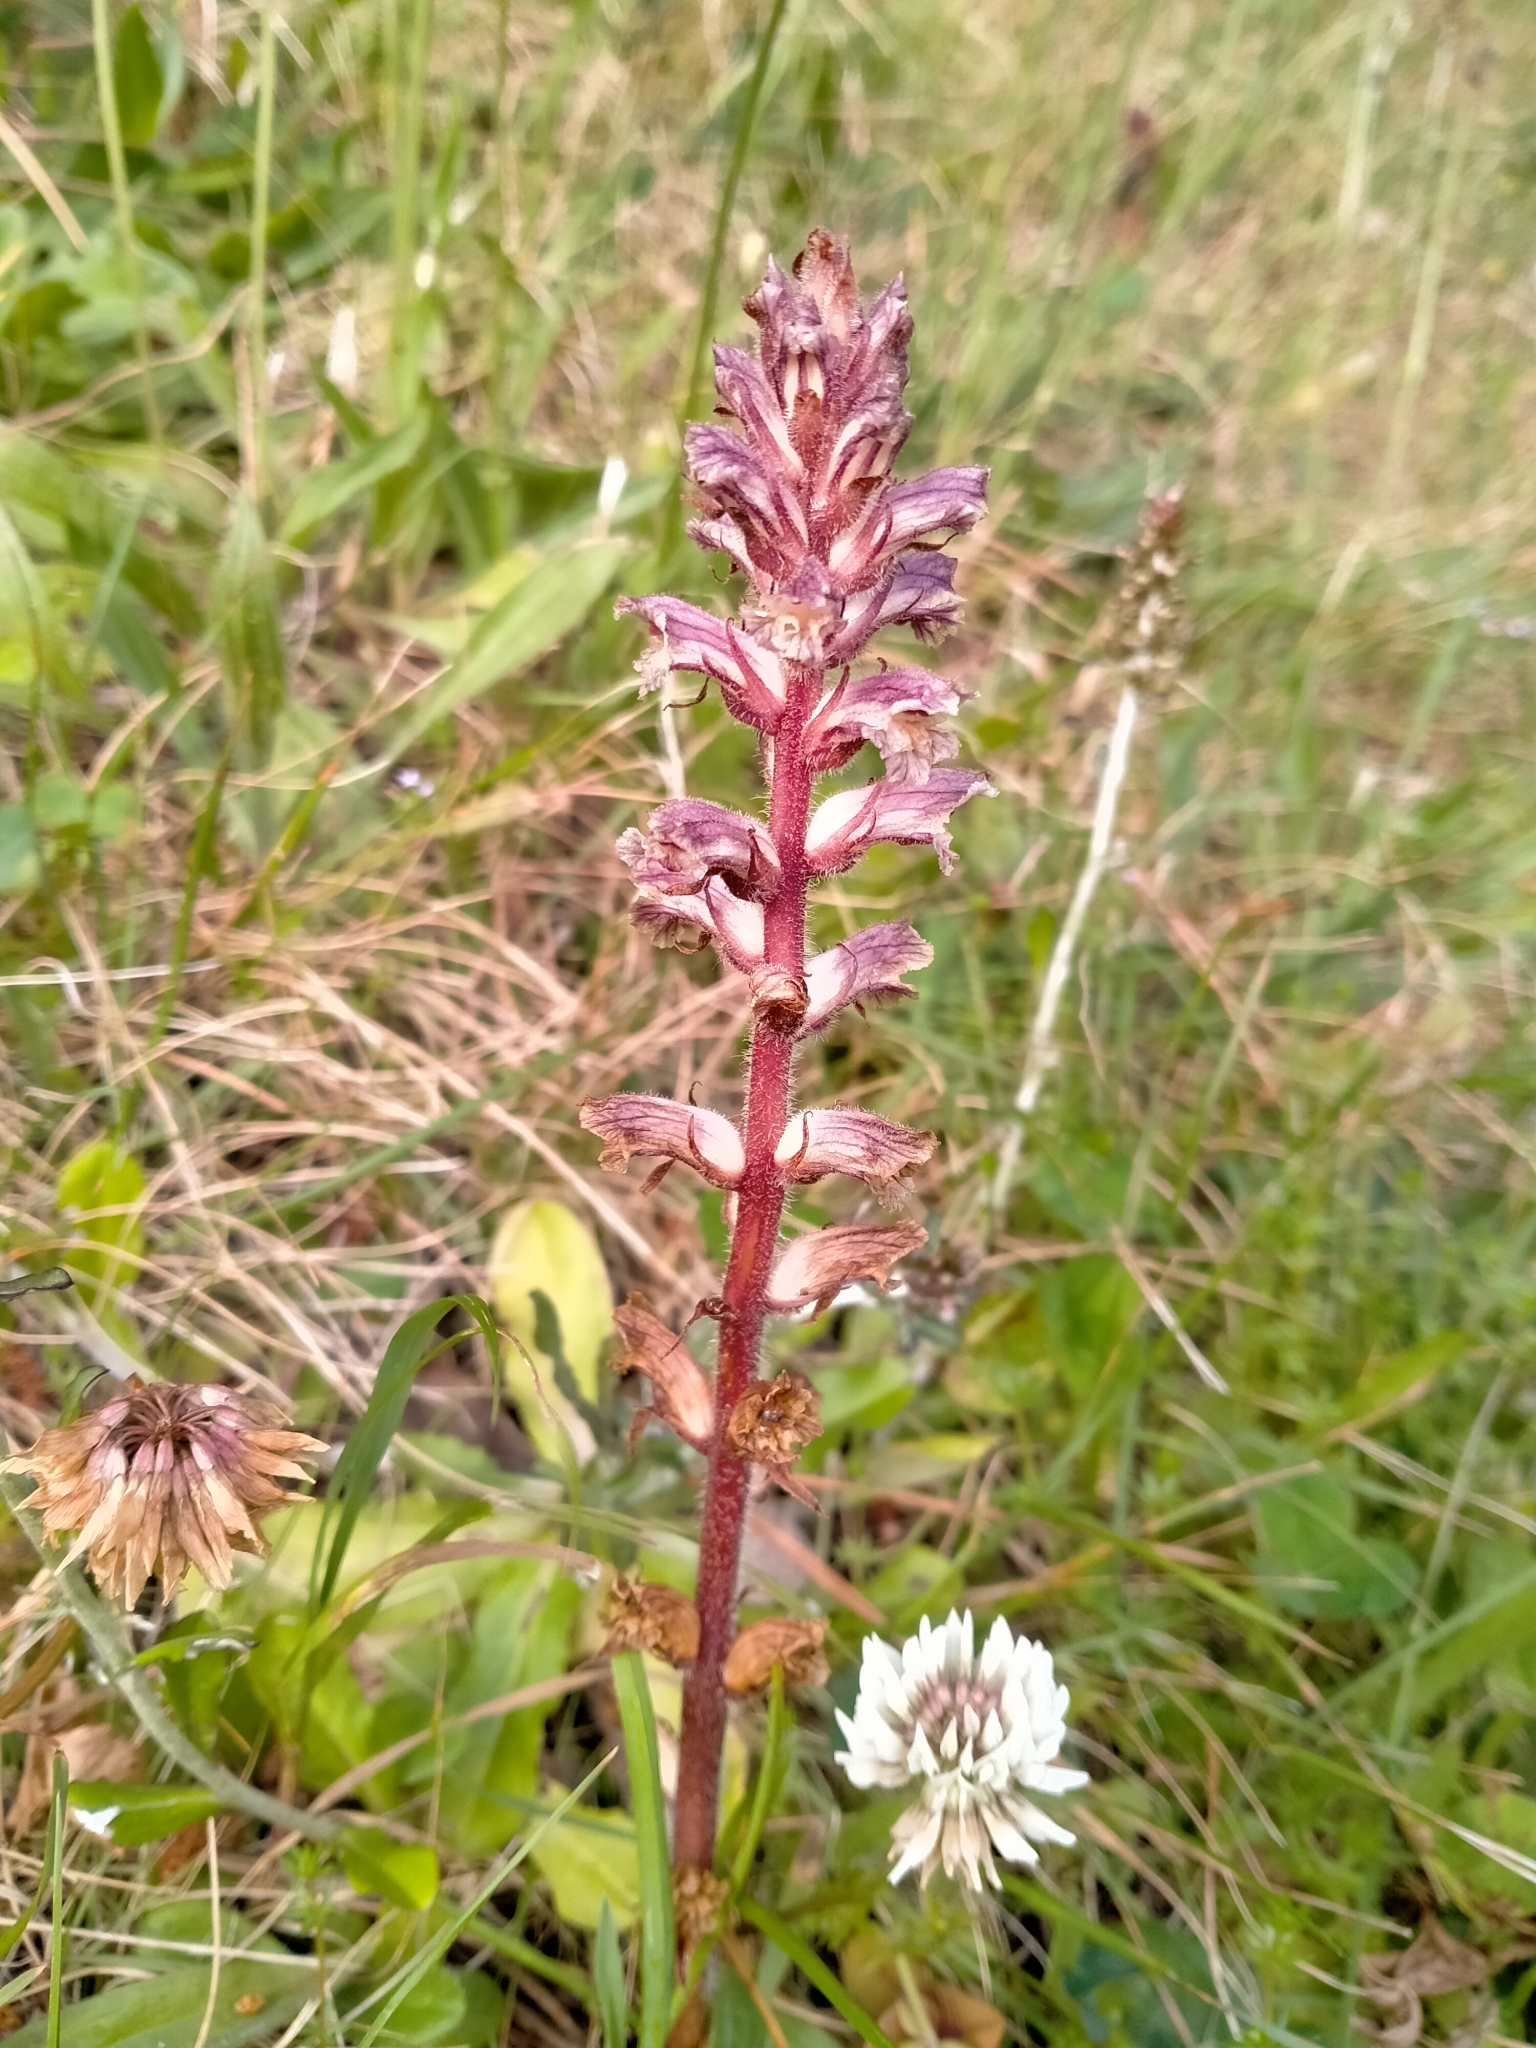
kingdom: Plantae
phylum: Tracheophyta
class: Magnoliopsida
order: Lamiales
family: Orobanchaceae
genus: Orobanche
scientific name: Orobanche minor
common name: Common broomrape
